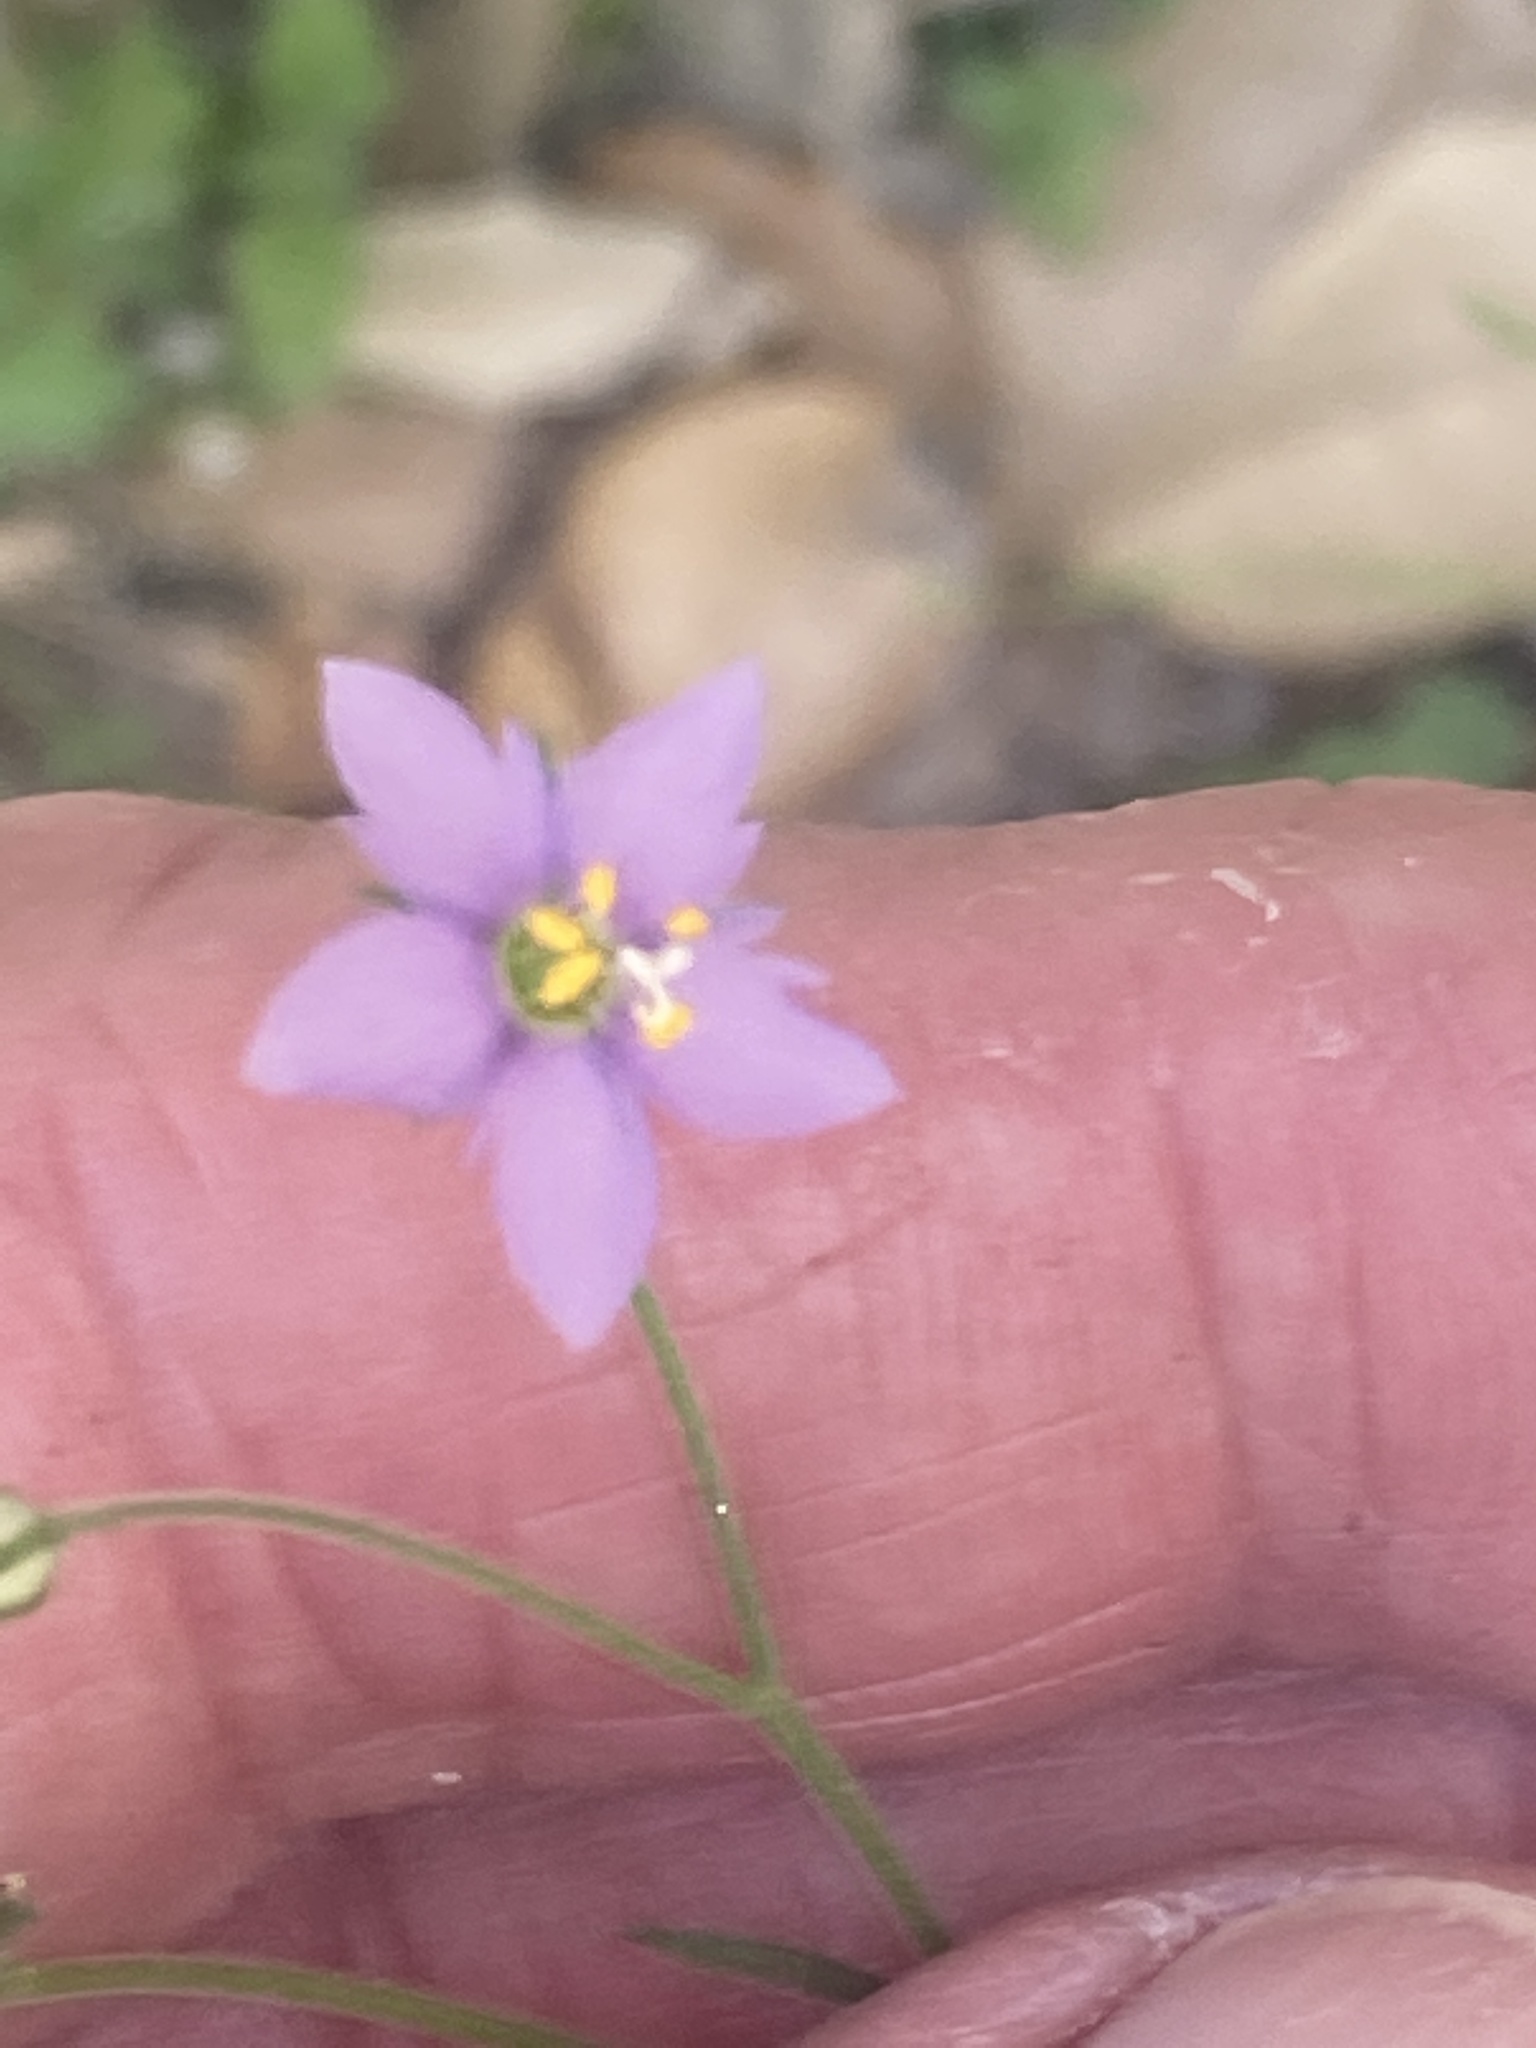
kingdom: Plantae
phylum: Tracheophyta
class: Magnoliopsida
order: Ericales
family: Polemoniaceae
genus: Giliastrum
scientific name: Giliastrum incisum
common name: Splitleaf gilia
